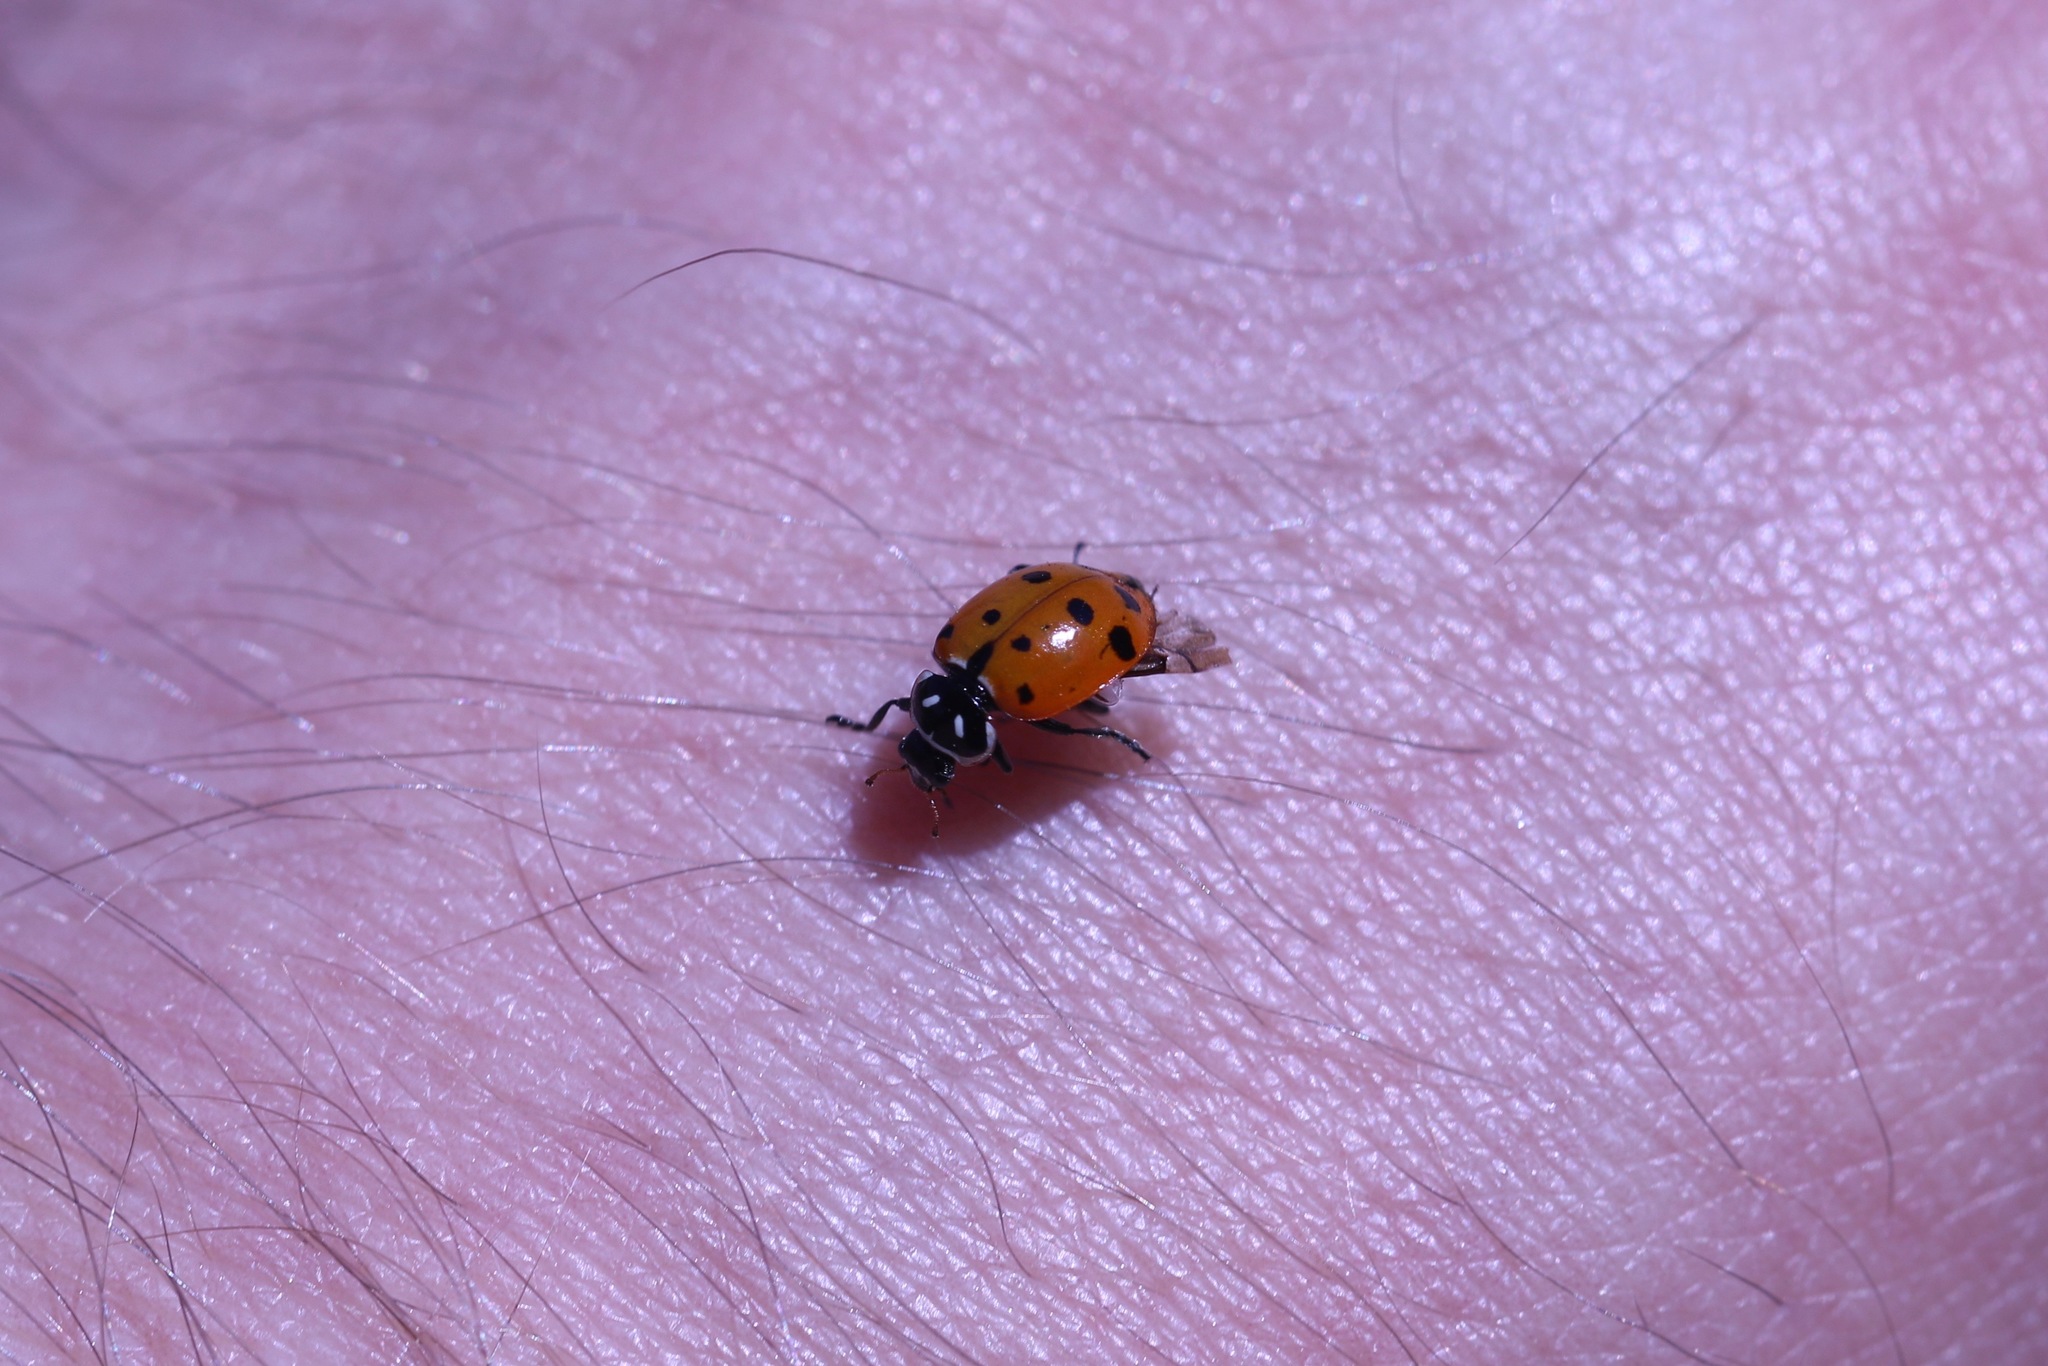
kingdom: Animalia
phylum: Arthropoda
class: Insecta
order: Coleoptera
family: Coccinellidae
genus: Hippodamia
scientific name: Hippodamia convergens
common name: Convergent lady beetle
